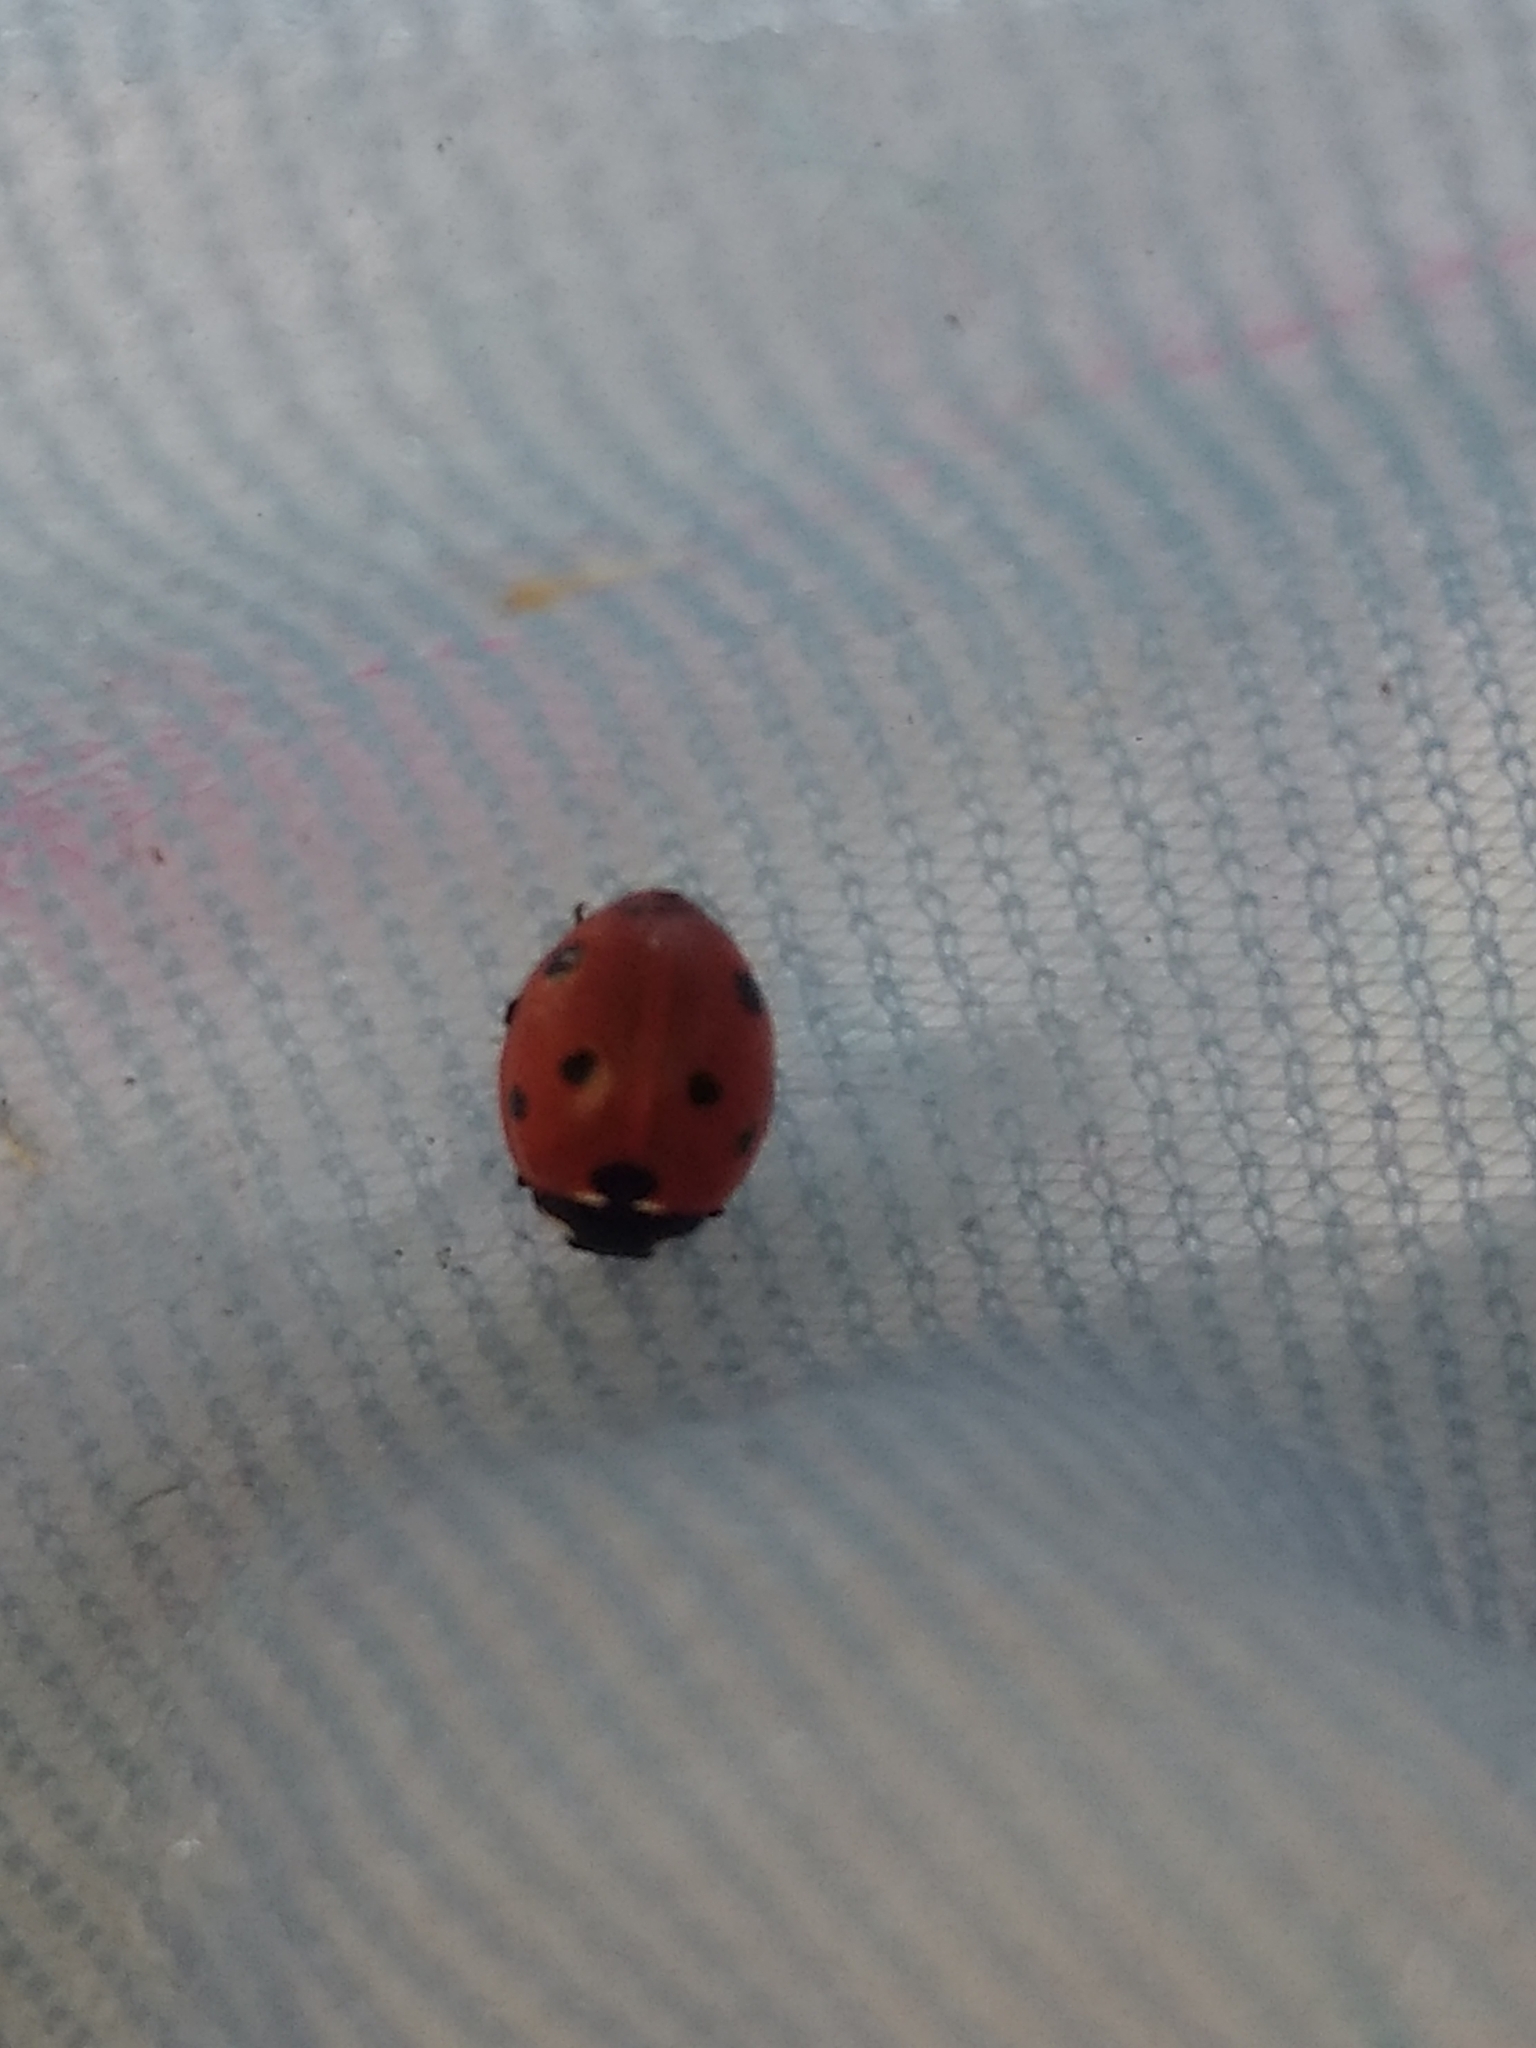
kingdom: Animalia
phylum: Arthropoda
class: Insecta
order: Coleoptera
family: Coccinellidae
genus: Coccinella
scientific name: Coccinella septempunctata
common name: Sevenspotted lady beetle
